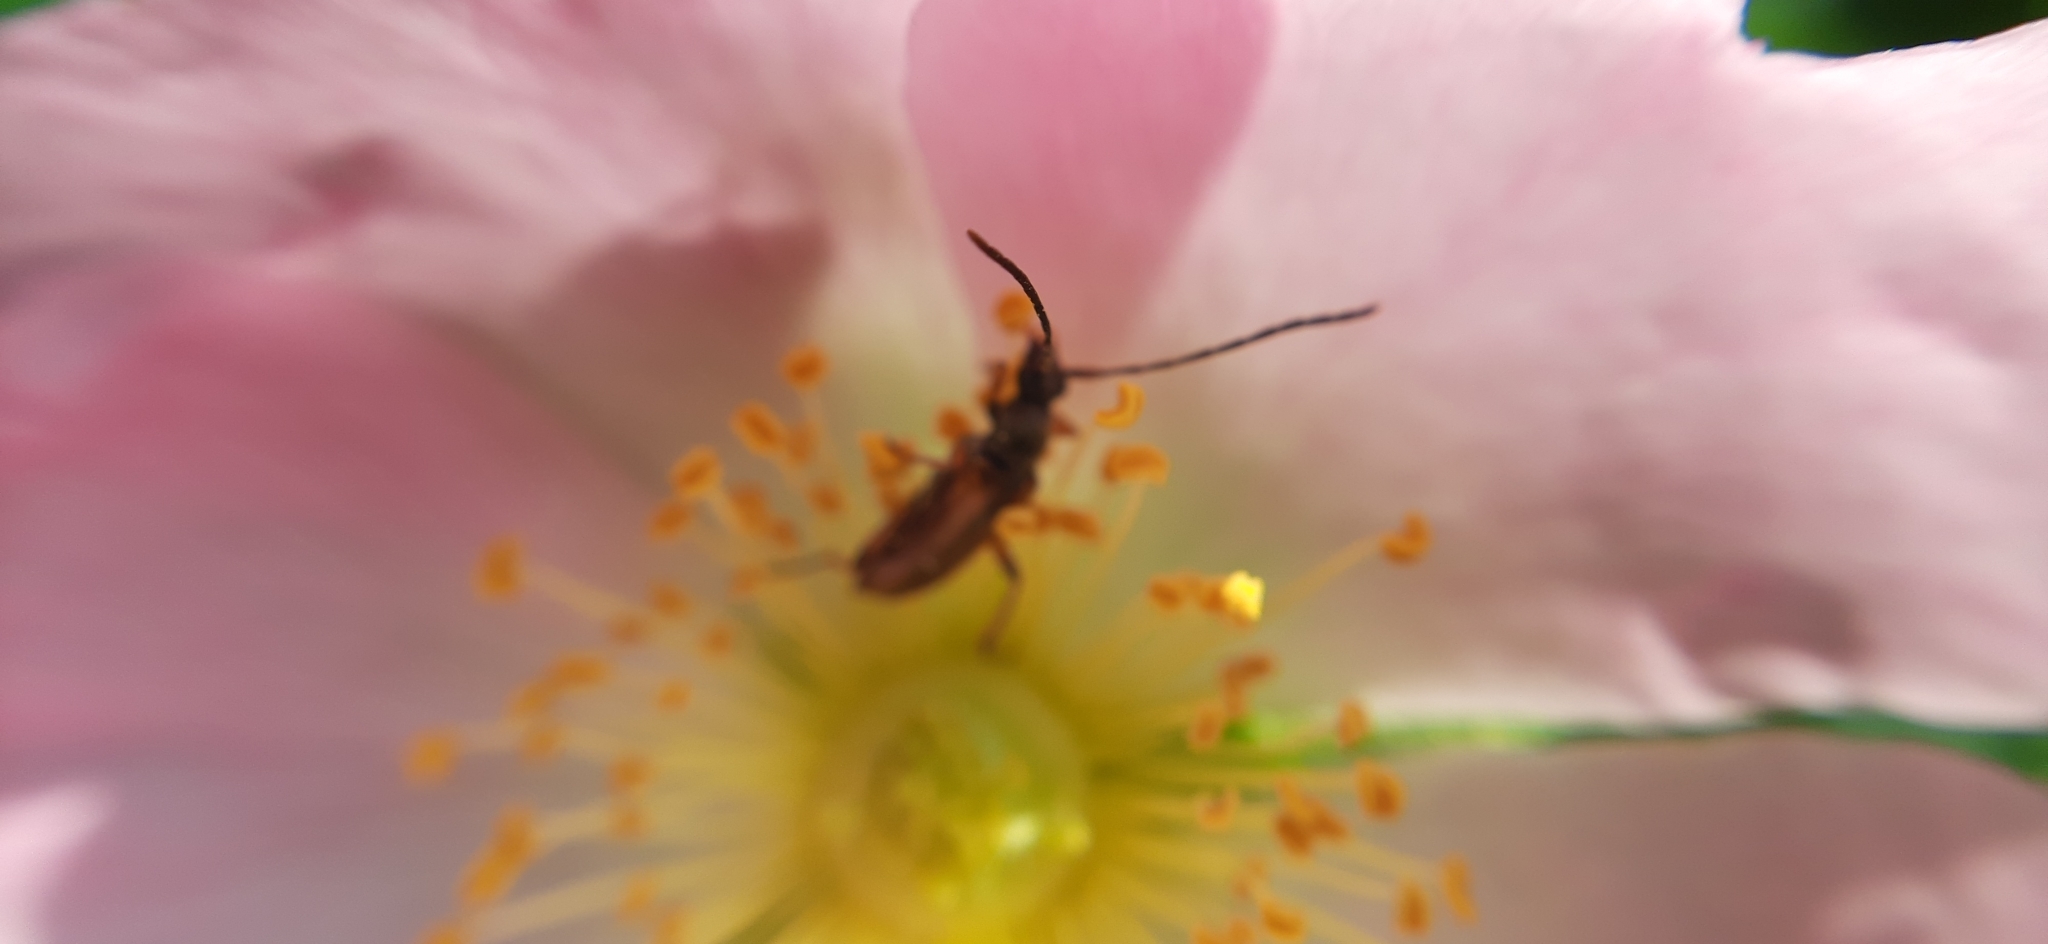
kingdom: Animalia
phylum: Arthropoda
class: Insecta
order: Coleoptera
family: Cerambycidae
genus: Alosterna
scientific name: Alosterna tabacicolor
